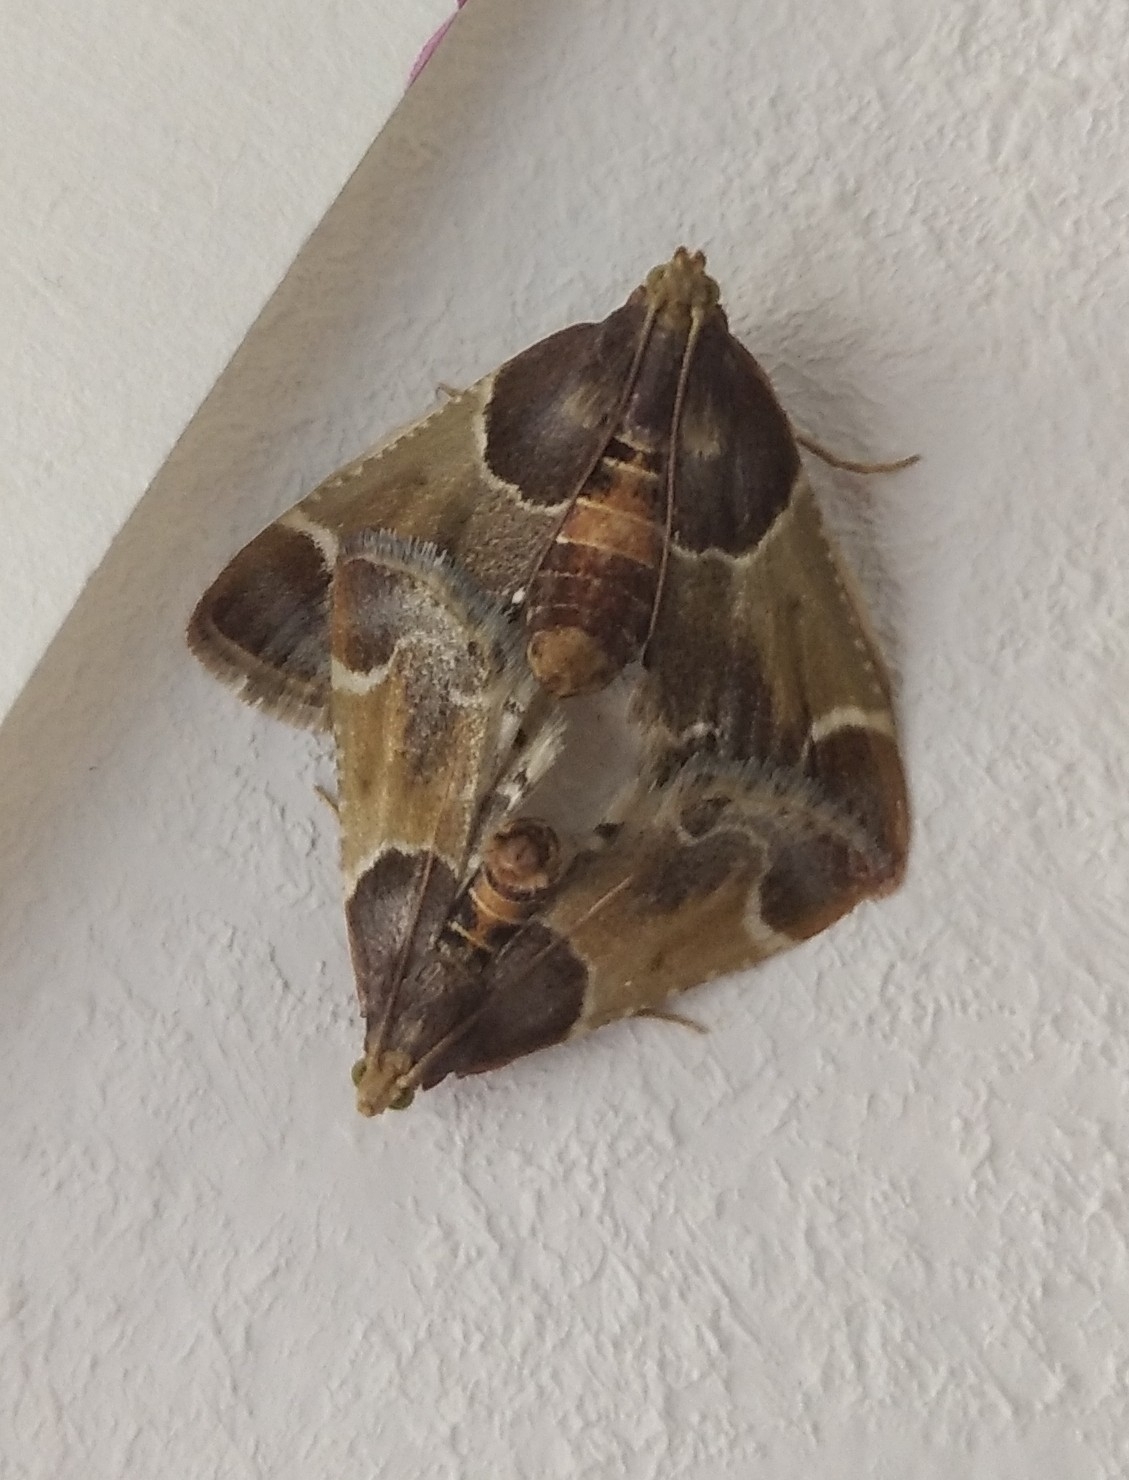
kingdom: Animalia
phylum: Arthropoda
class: Insecta
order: Lepidoptera
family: Pyralidae
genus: Pyralis
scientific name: Pyralis farinalis
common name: Meal moth
